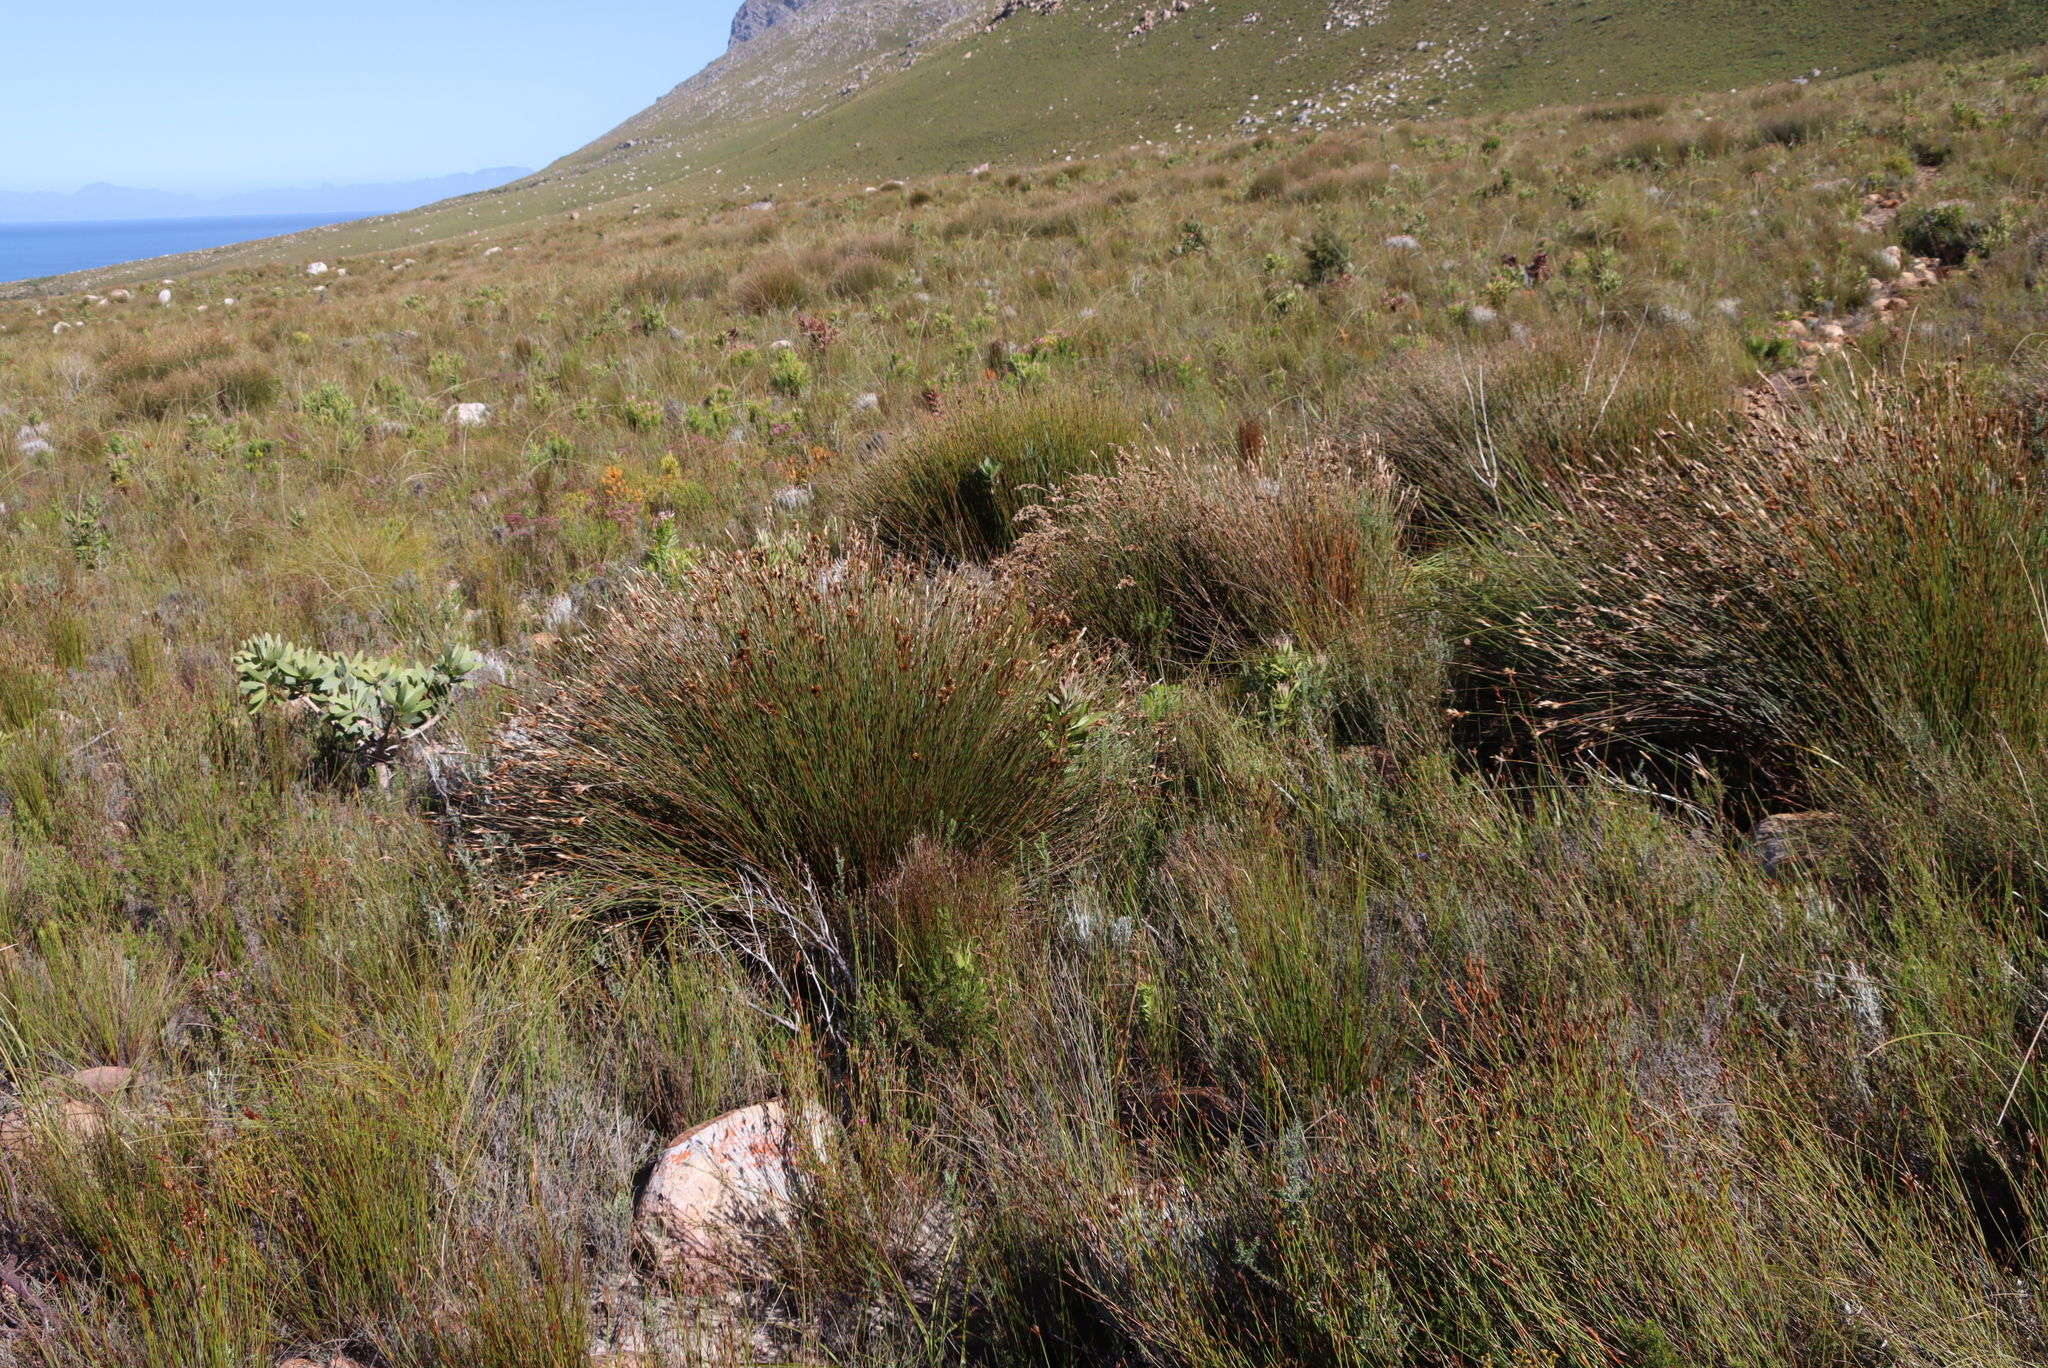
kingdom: Plantae
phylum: Tracheophyta
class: Liliopsida
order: Poales
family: Restionaceae
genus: Hypodiscus
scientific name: Hypodiscus argenteus
